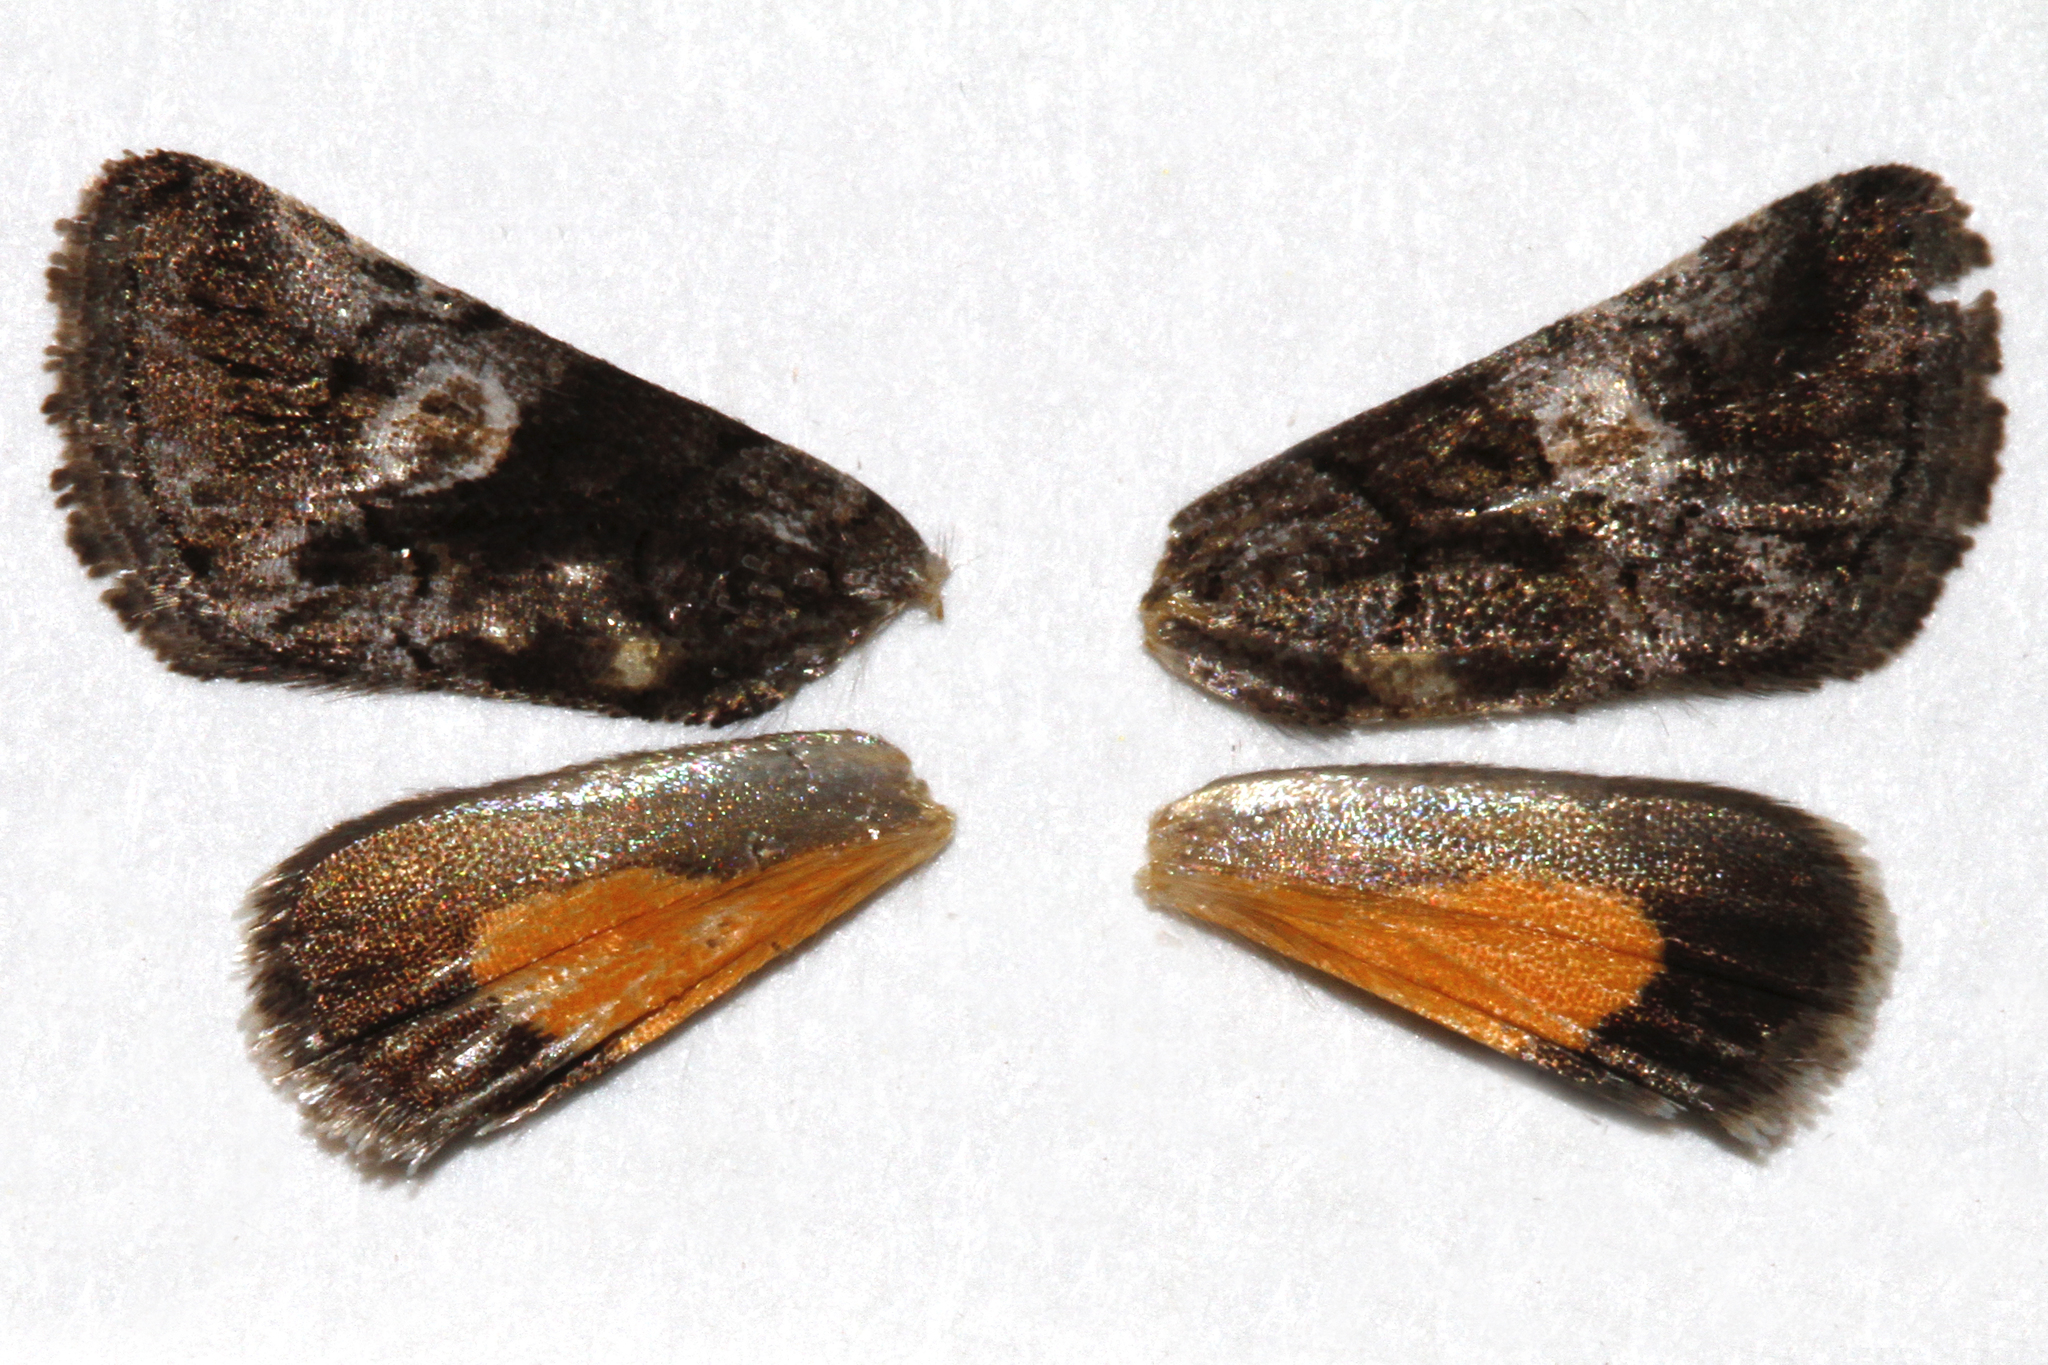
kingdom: Animalia
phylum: Arthropoda
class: Insecta
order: Lepidoptera
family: Noctuidae
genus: Copanarta
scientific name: Copanarta aurea
